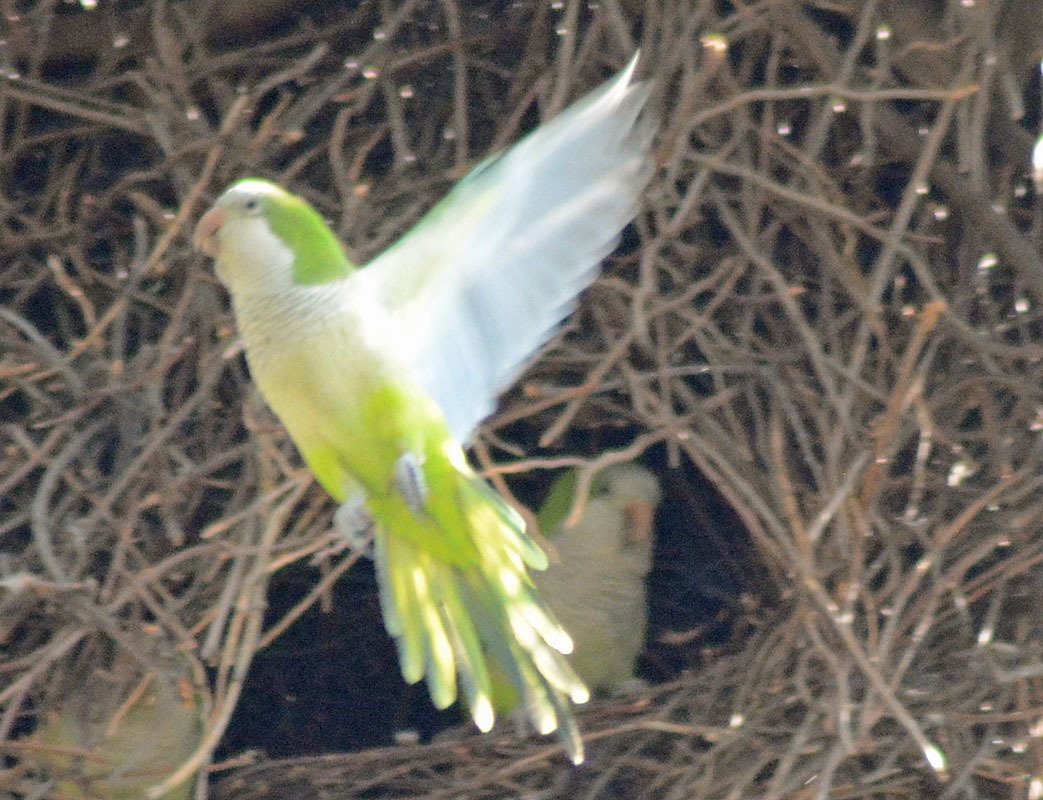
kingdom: Animalia
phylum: Chordata
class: Aves
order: Psittaciformes
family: Psittacidae
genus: Myiopsitta
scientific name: Myiopsitta monachus
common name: Monk parakeet
